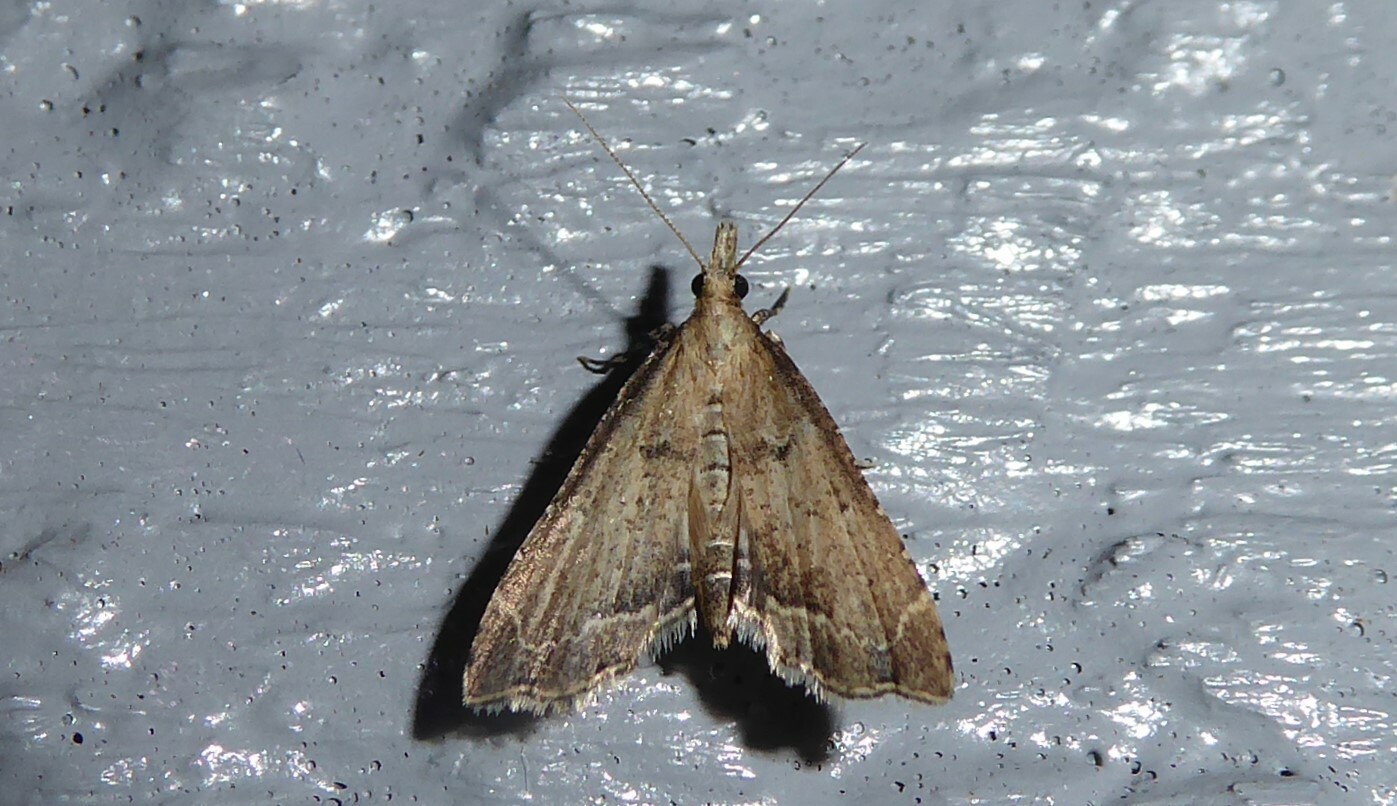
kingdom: Animalia
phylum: Arthropoda
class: Insecta
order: Lepidoptera
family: Crambidae
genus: Diplopseustis
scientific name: Diplopseustis perieresalis
